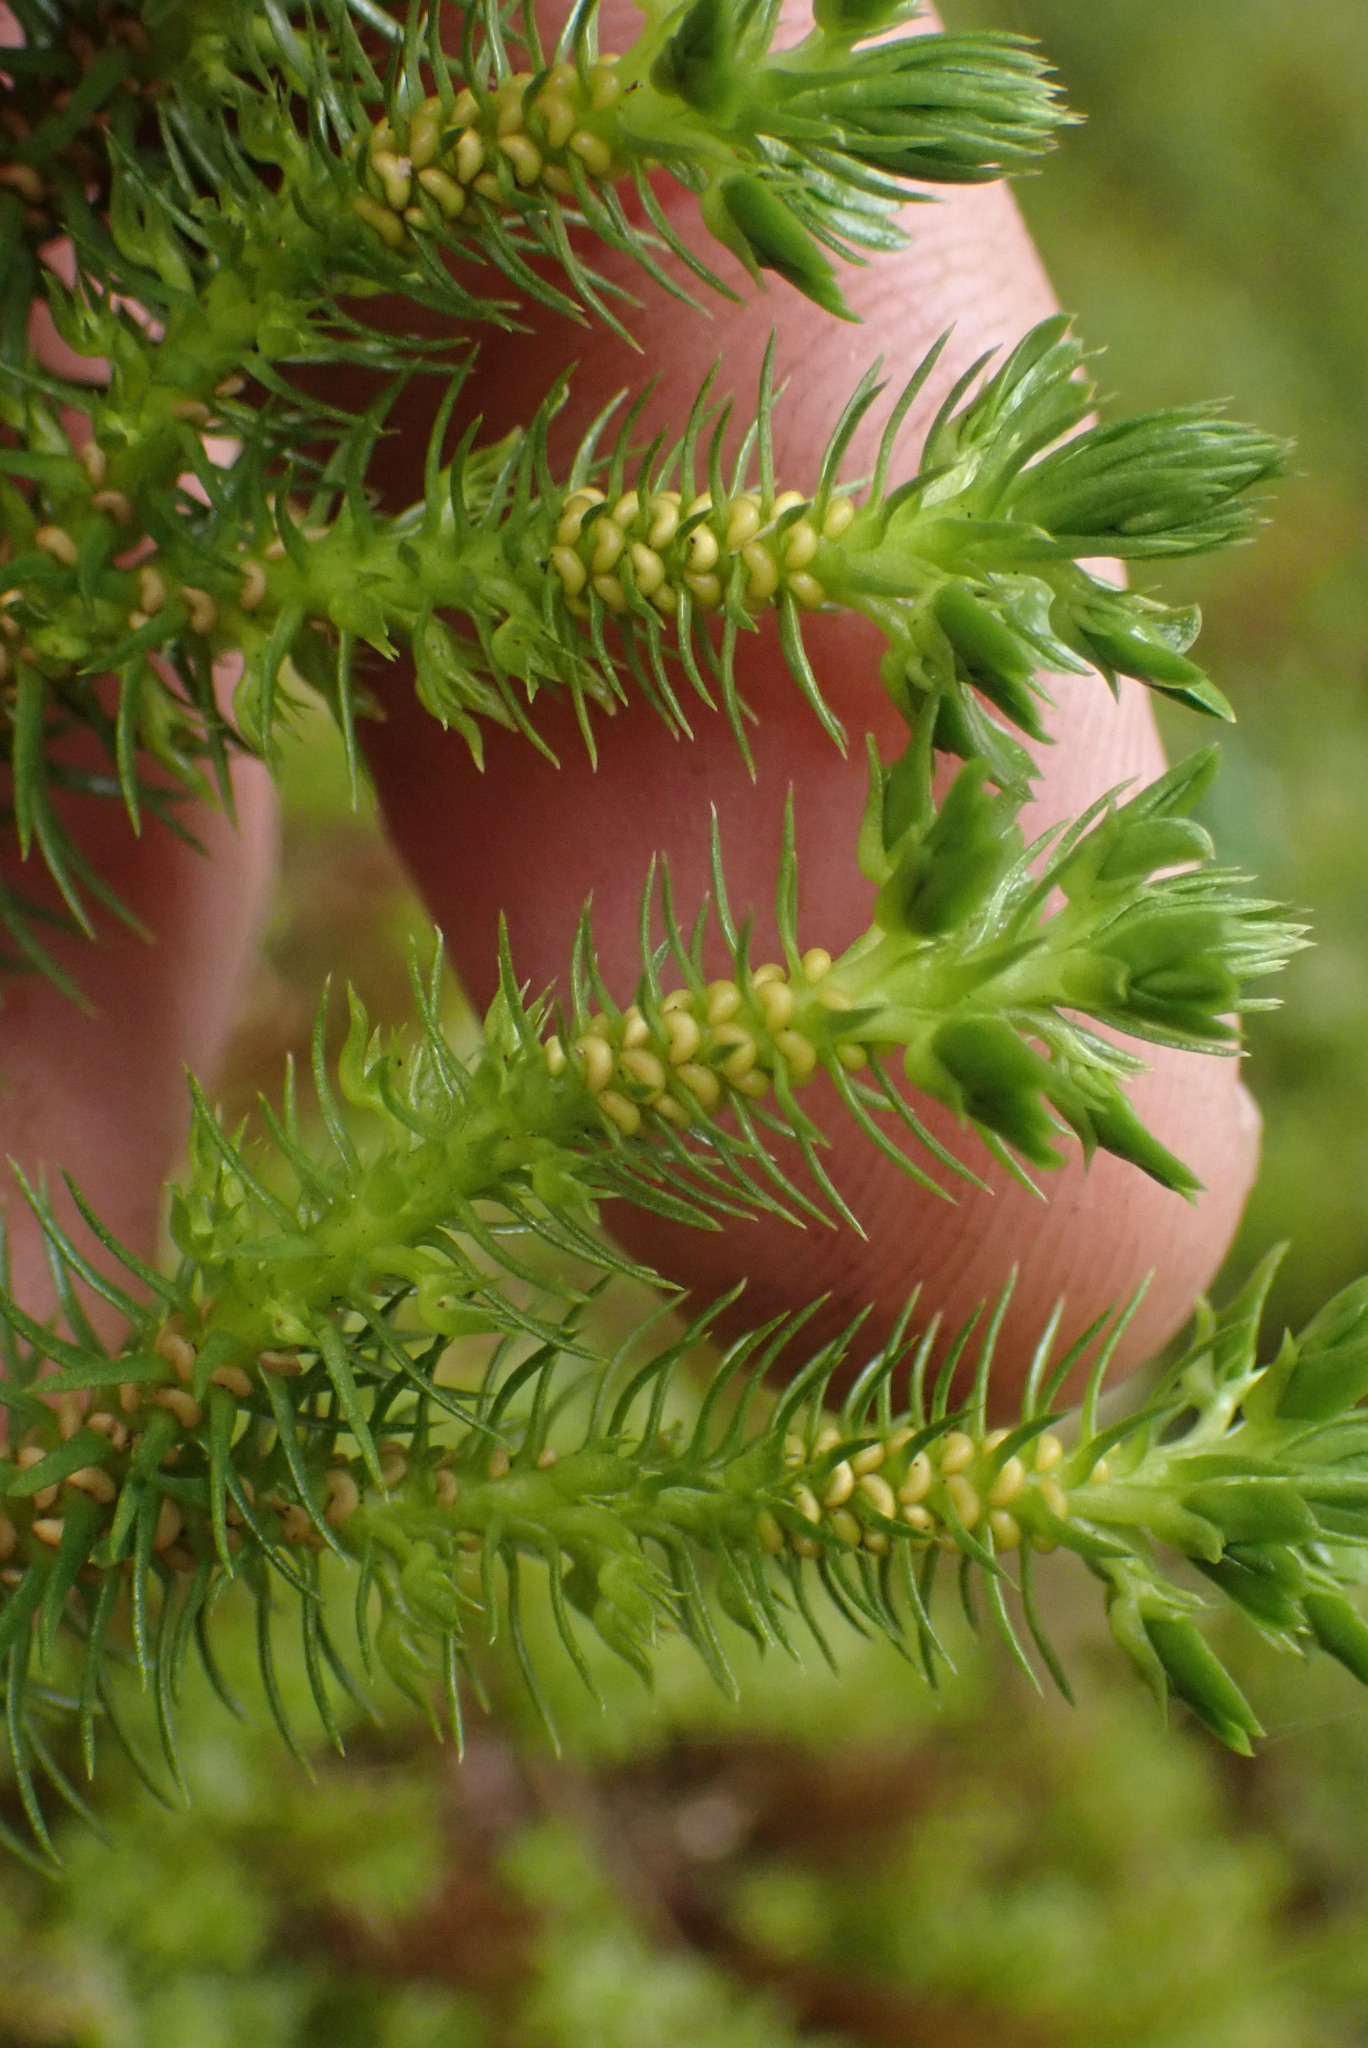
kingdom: Plantae
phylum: Tracheophyta
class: Lycopodiopsida
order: Lycopodiales
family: Lycopodiaceae
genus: Huperzia
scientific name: Huperzia miyoshiana
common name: Chinese clubmoss
